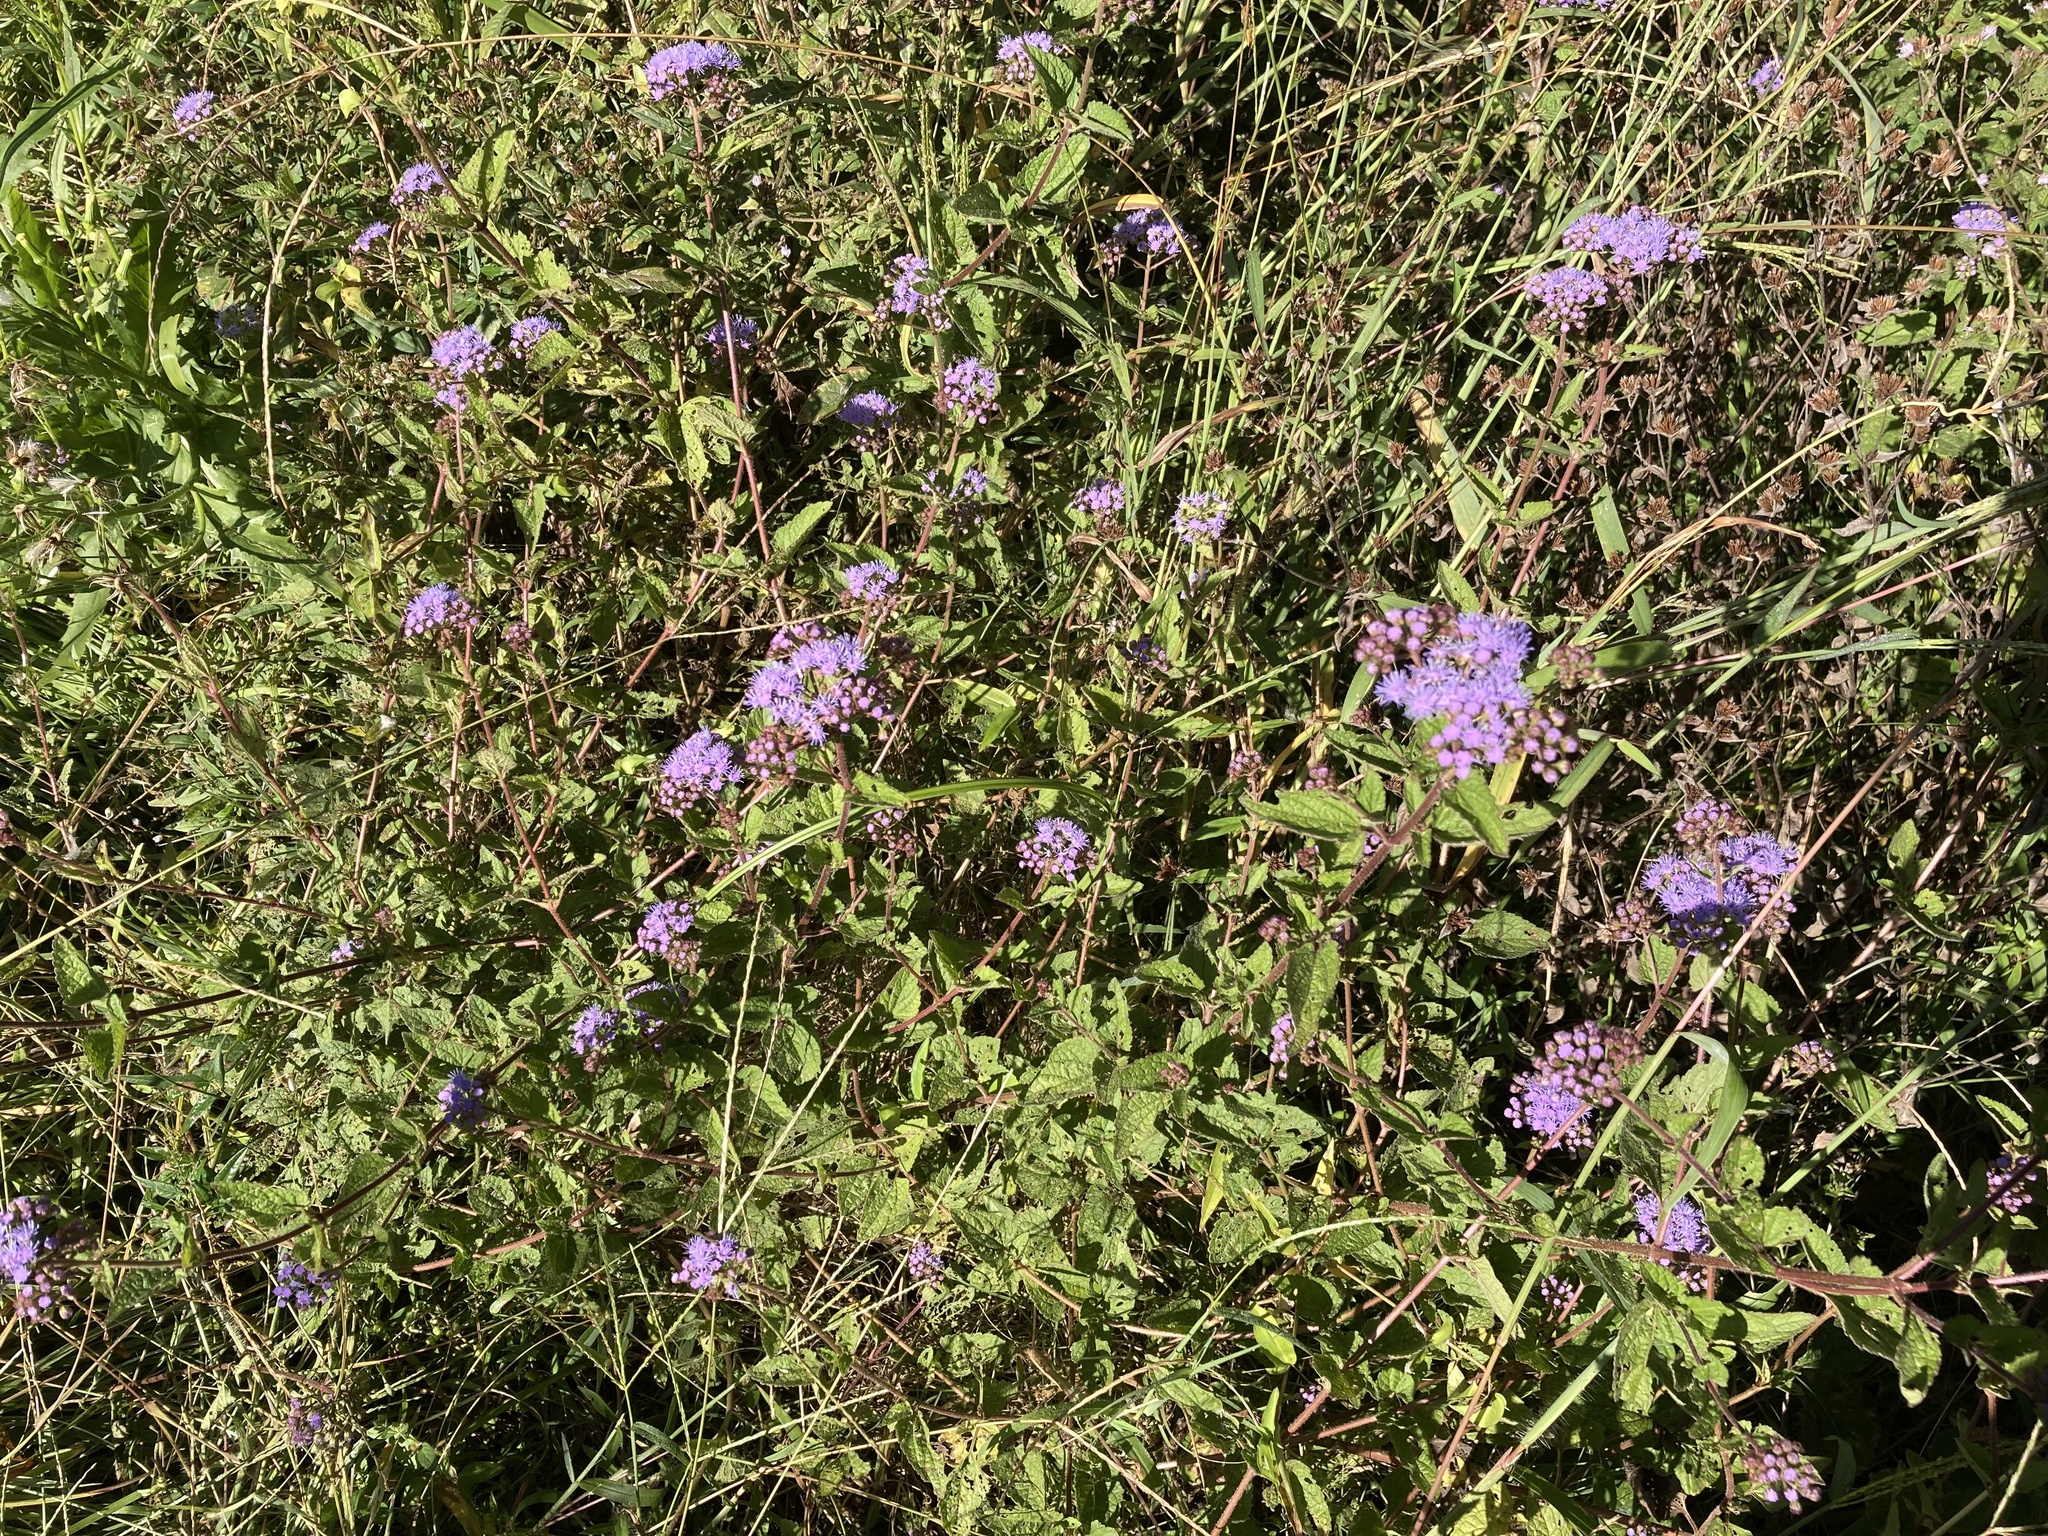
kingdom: Plantae
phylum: Tracheophyta
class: Magnoliopsida
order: Asterales
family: Asteraceae
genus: Conoclinium
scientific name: Conoclinium coelestinum
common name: Blue mistflower
